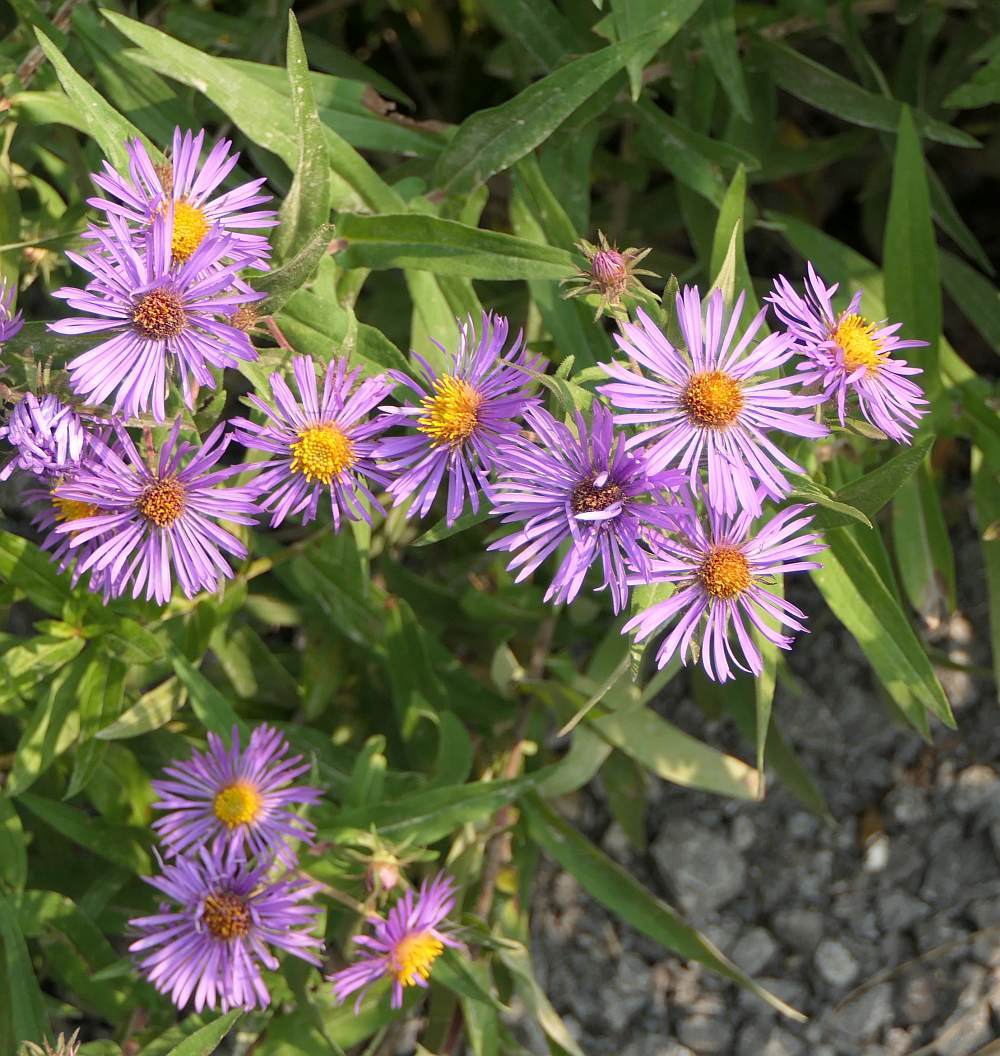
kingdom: Plantae
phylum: Tracheophyta
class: Magnoliopsida
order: Asterales
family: Asteraceae
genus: Symphyotrichum
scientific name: Symphyotrichum novae-angliae
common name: Michaelmas daisy
